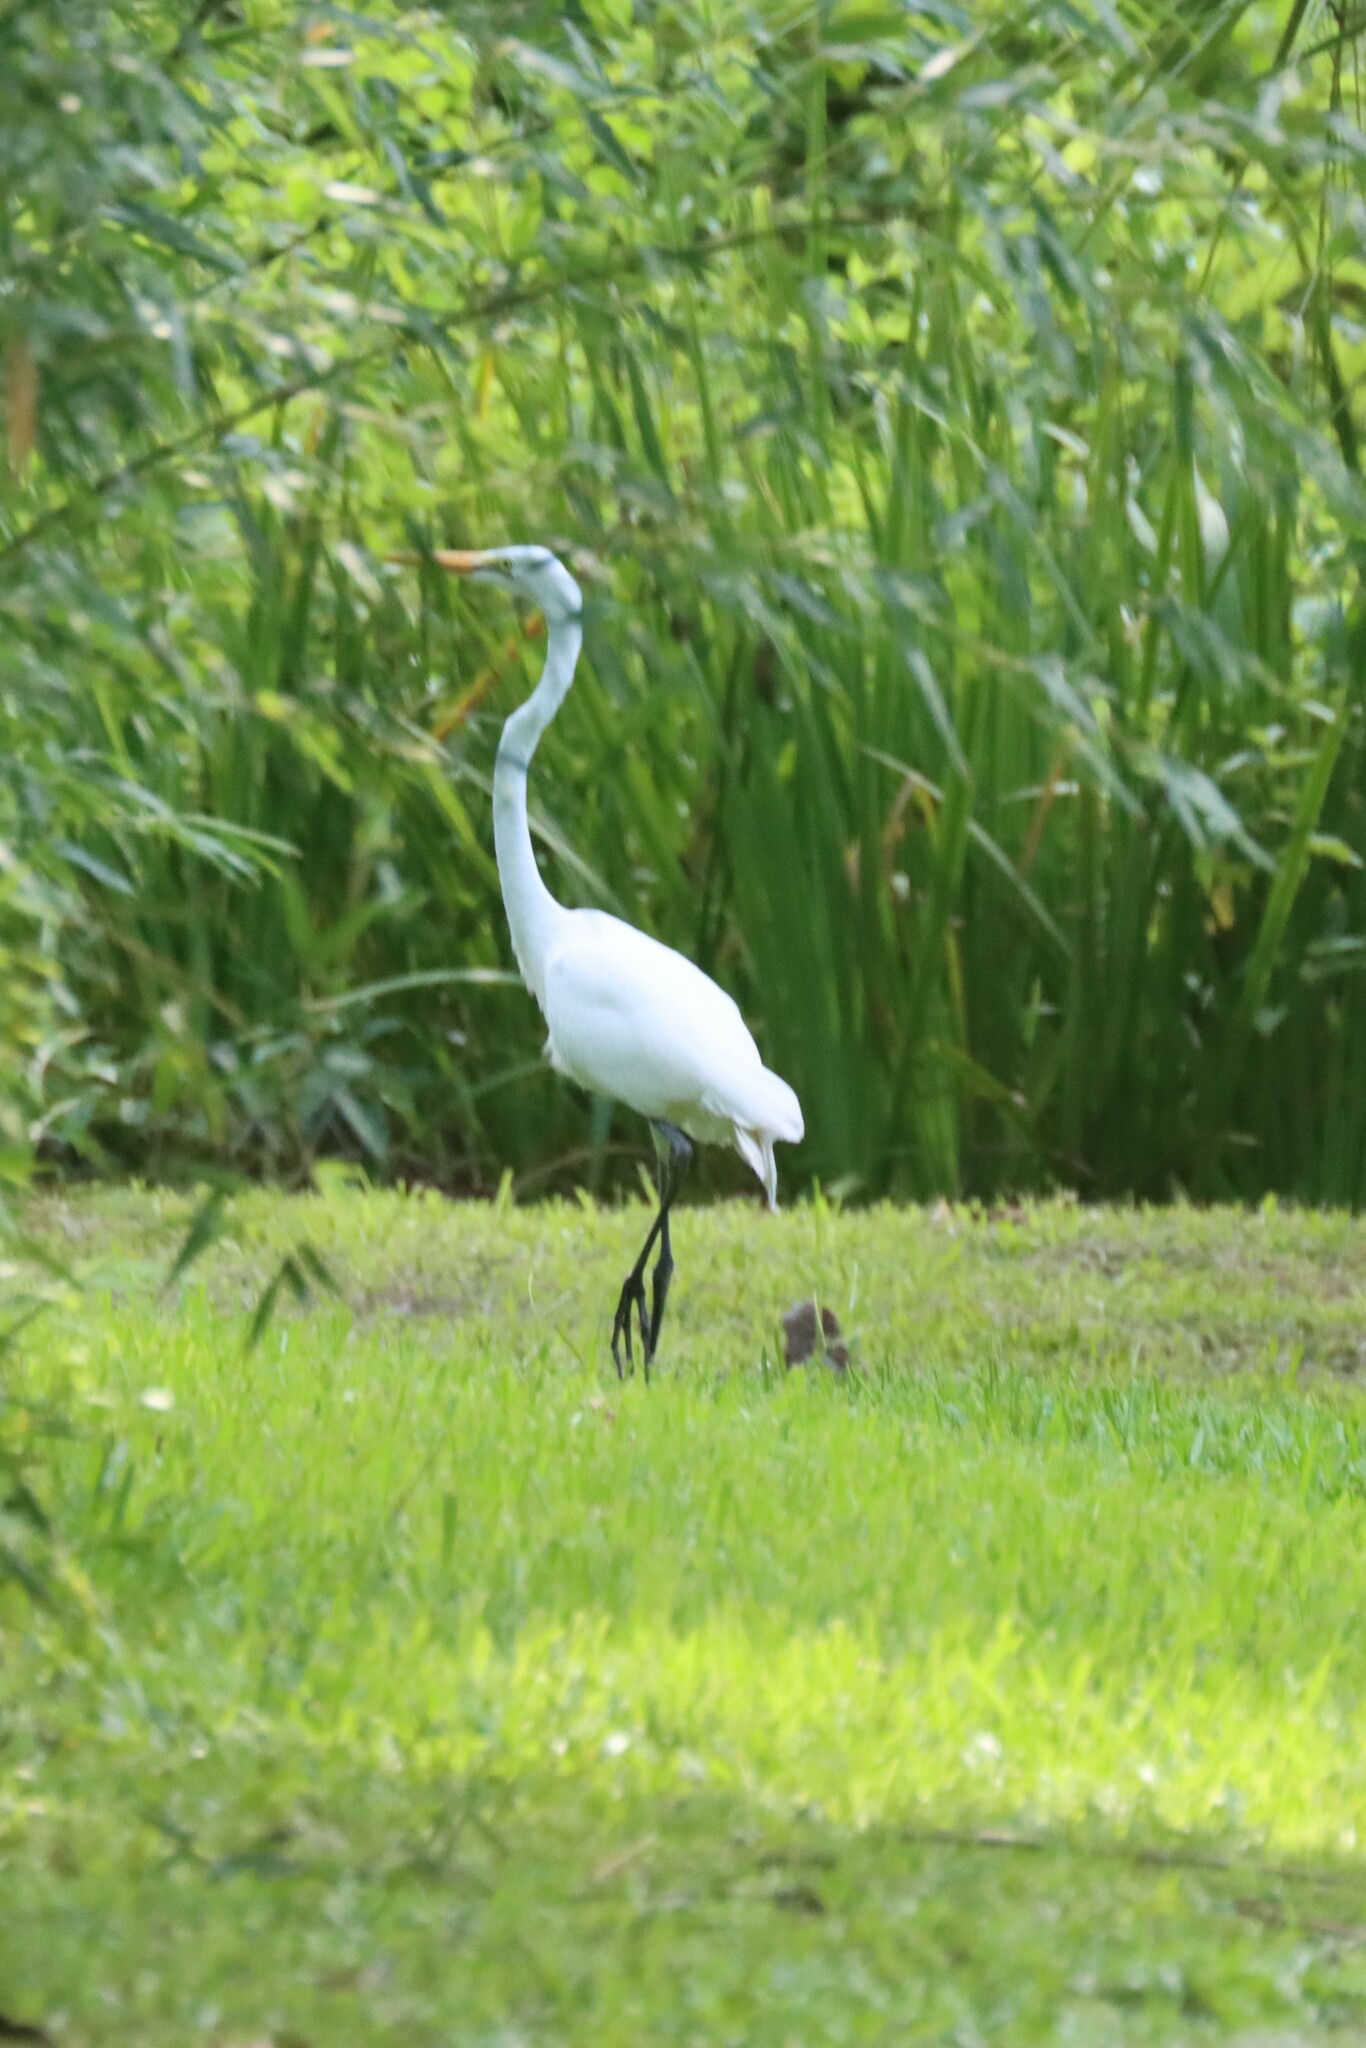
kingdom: Animalia
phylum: Chordata
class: Aves
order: Pelecaniformes
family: Ardeidae
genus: Ardea
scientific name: Ardea alba
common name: Great egret
